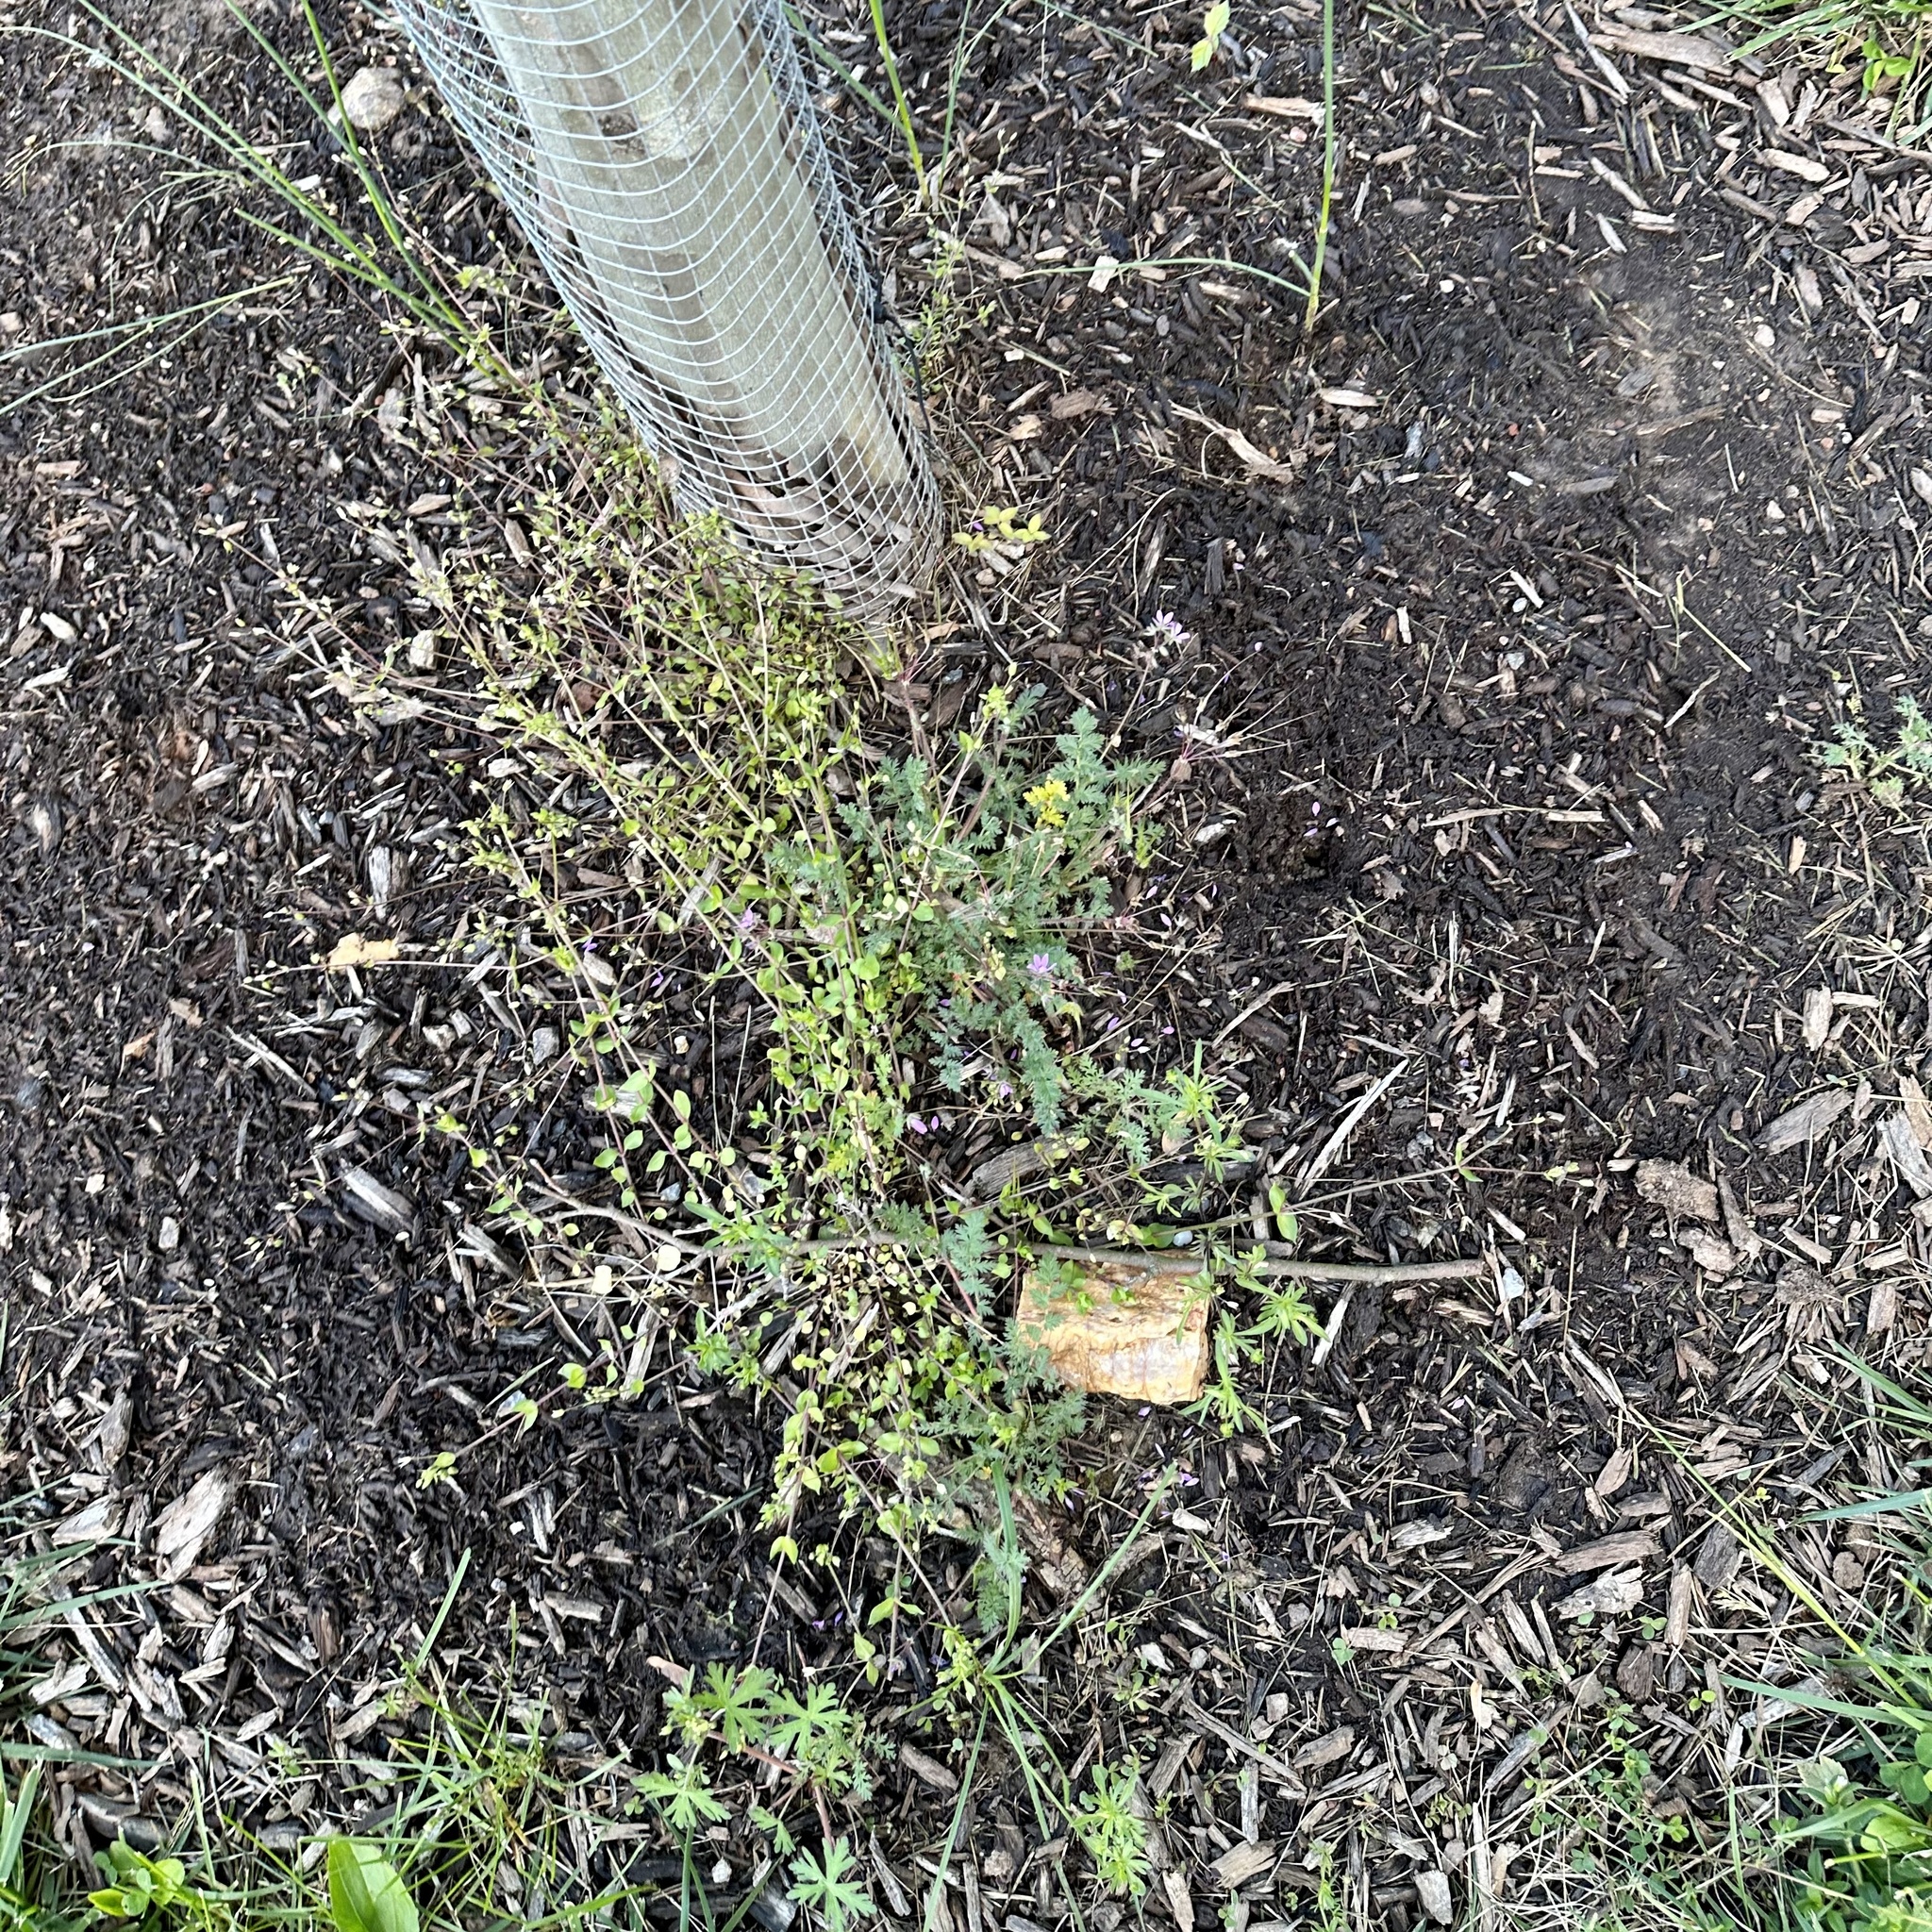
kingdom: Plantae
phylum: Tracheophyta
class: Magnoliopsida
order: Geraniales
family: Geraniaceae
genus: Erodium
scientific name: Erodium cicutarium
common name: Common stork's-bill
